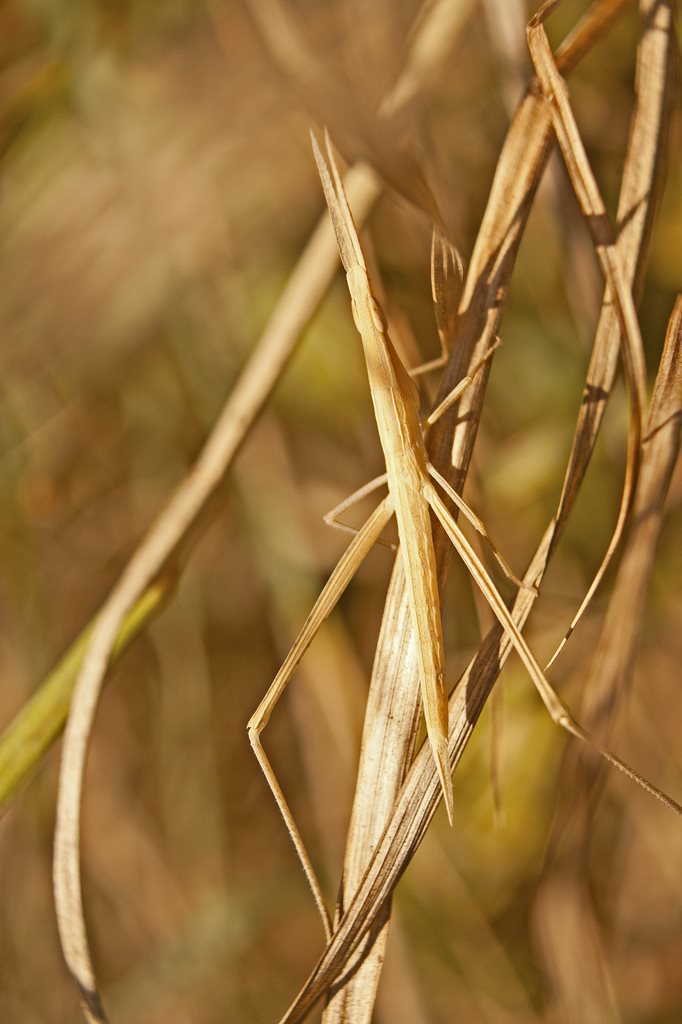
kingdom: Animalia
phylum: Arthropoda
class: Insecta
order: Orthoptera
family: Acrididae
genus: Acrida
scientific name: Acrida conica
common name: Giant green slantface
